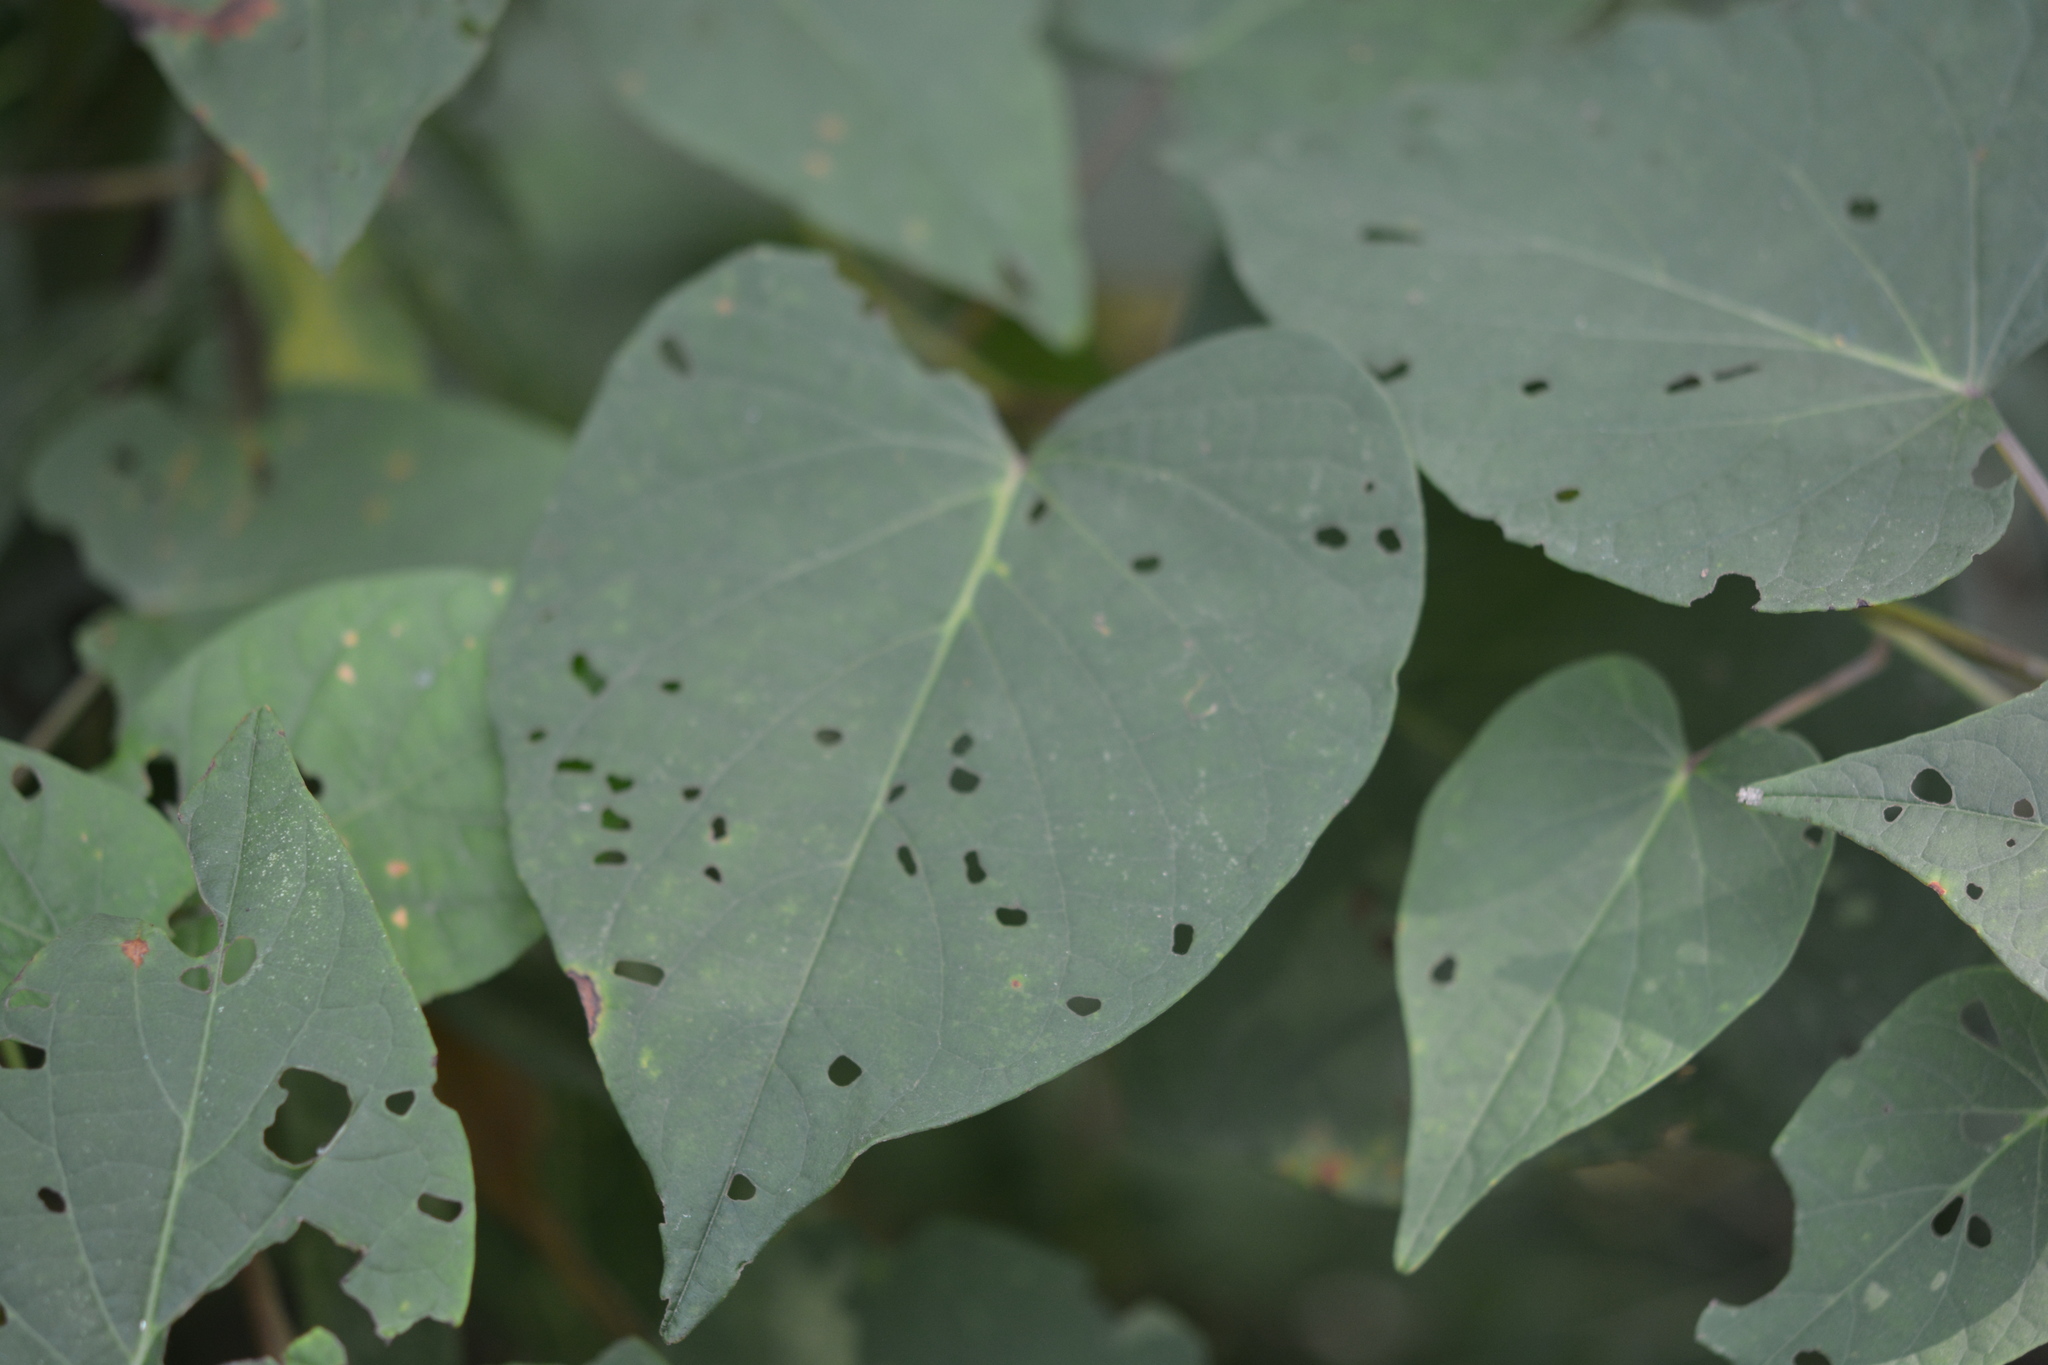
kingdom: Plantae
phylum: Tracheophyta
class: Magnoliopsida
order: Solanales
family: Convolvulaceae
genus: Ipomoea
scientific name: Ipomoea pandurata
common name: Man-of-the-earth
